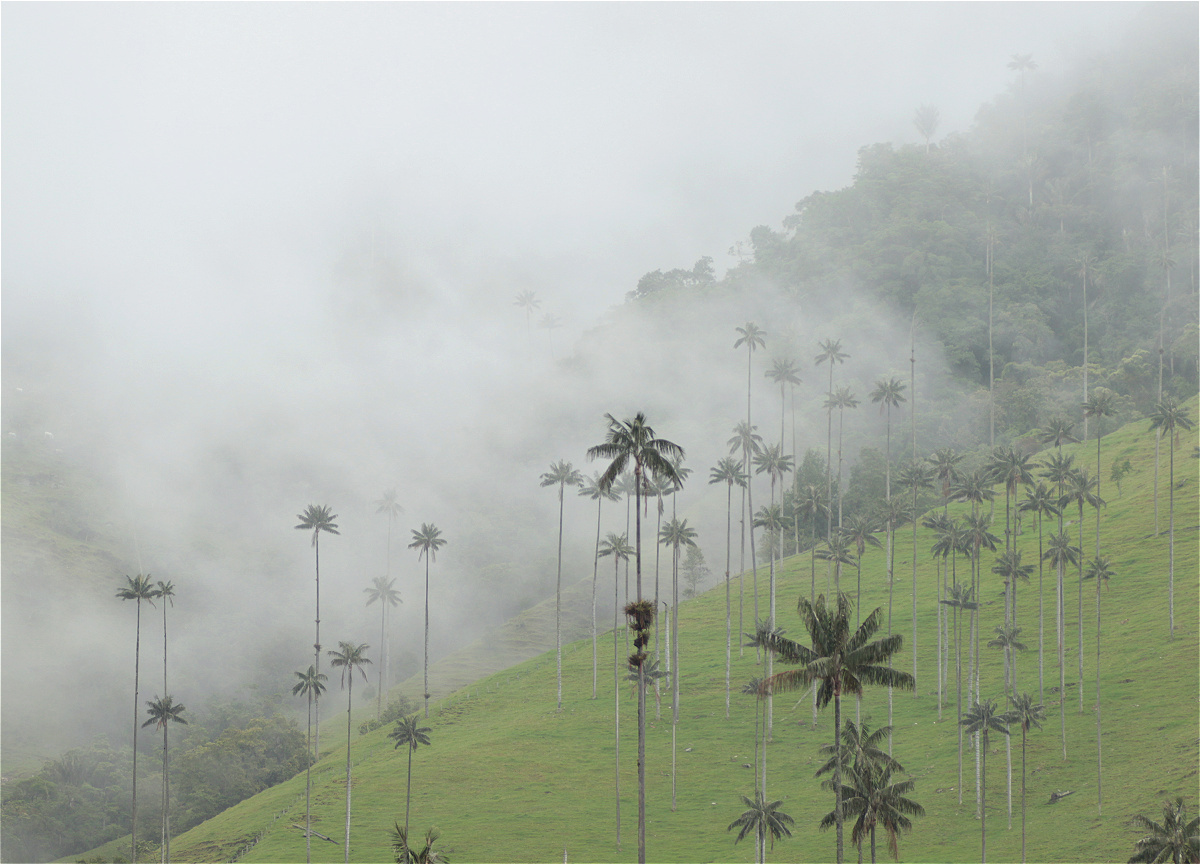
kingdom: Plantae
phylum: Tracheophyta
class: Liliopsida
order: Arecales
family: Arecaceae
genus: Ceroxylon
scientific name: Ceroxylon quindiuense
